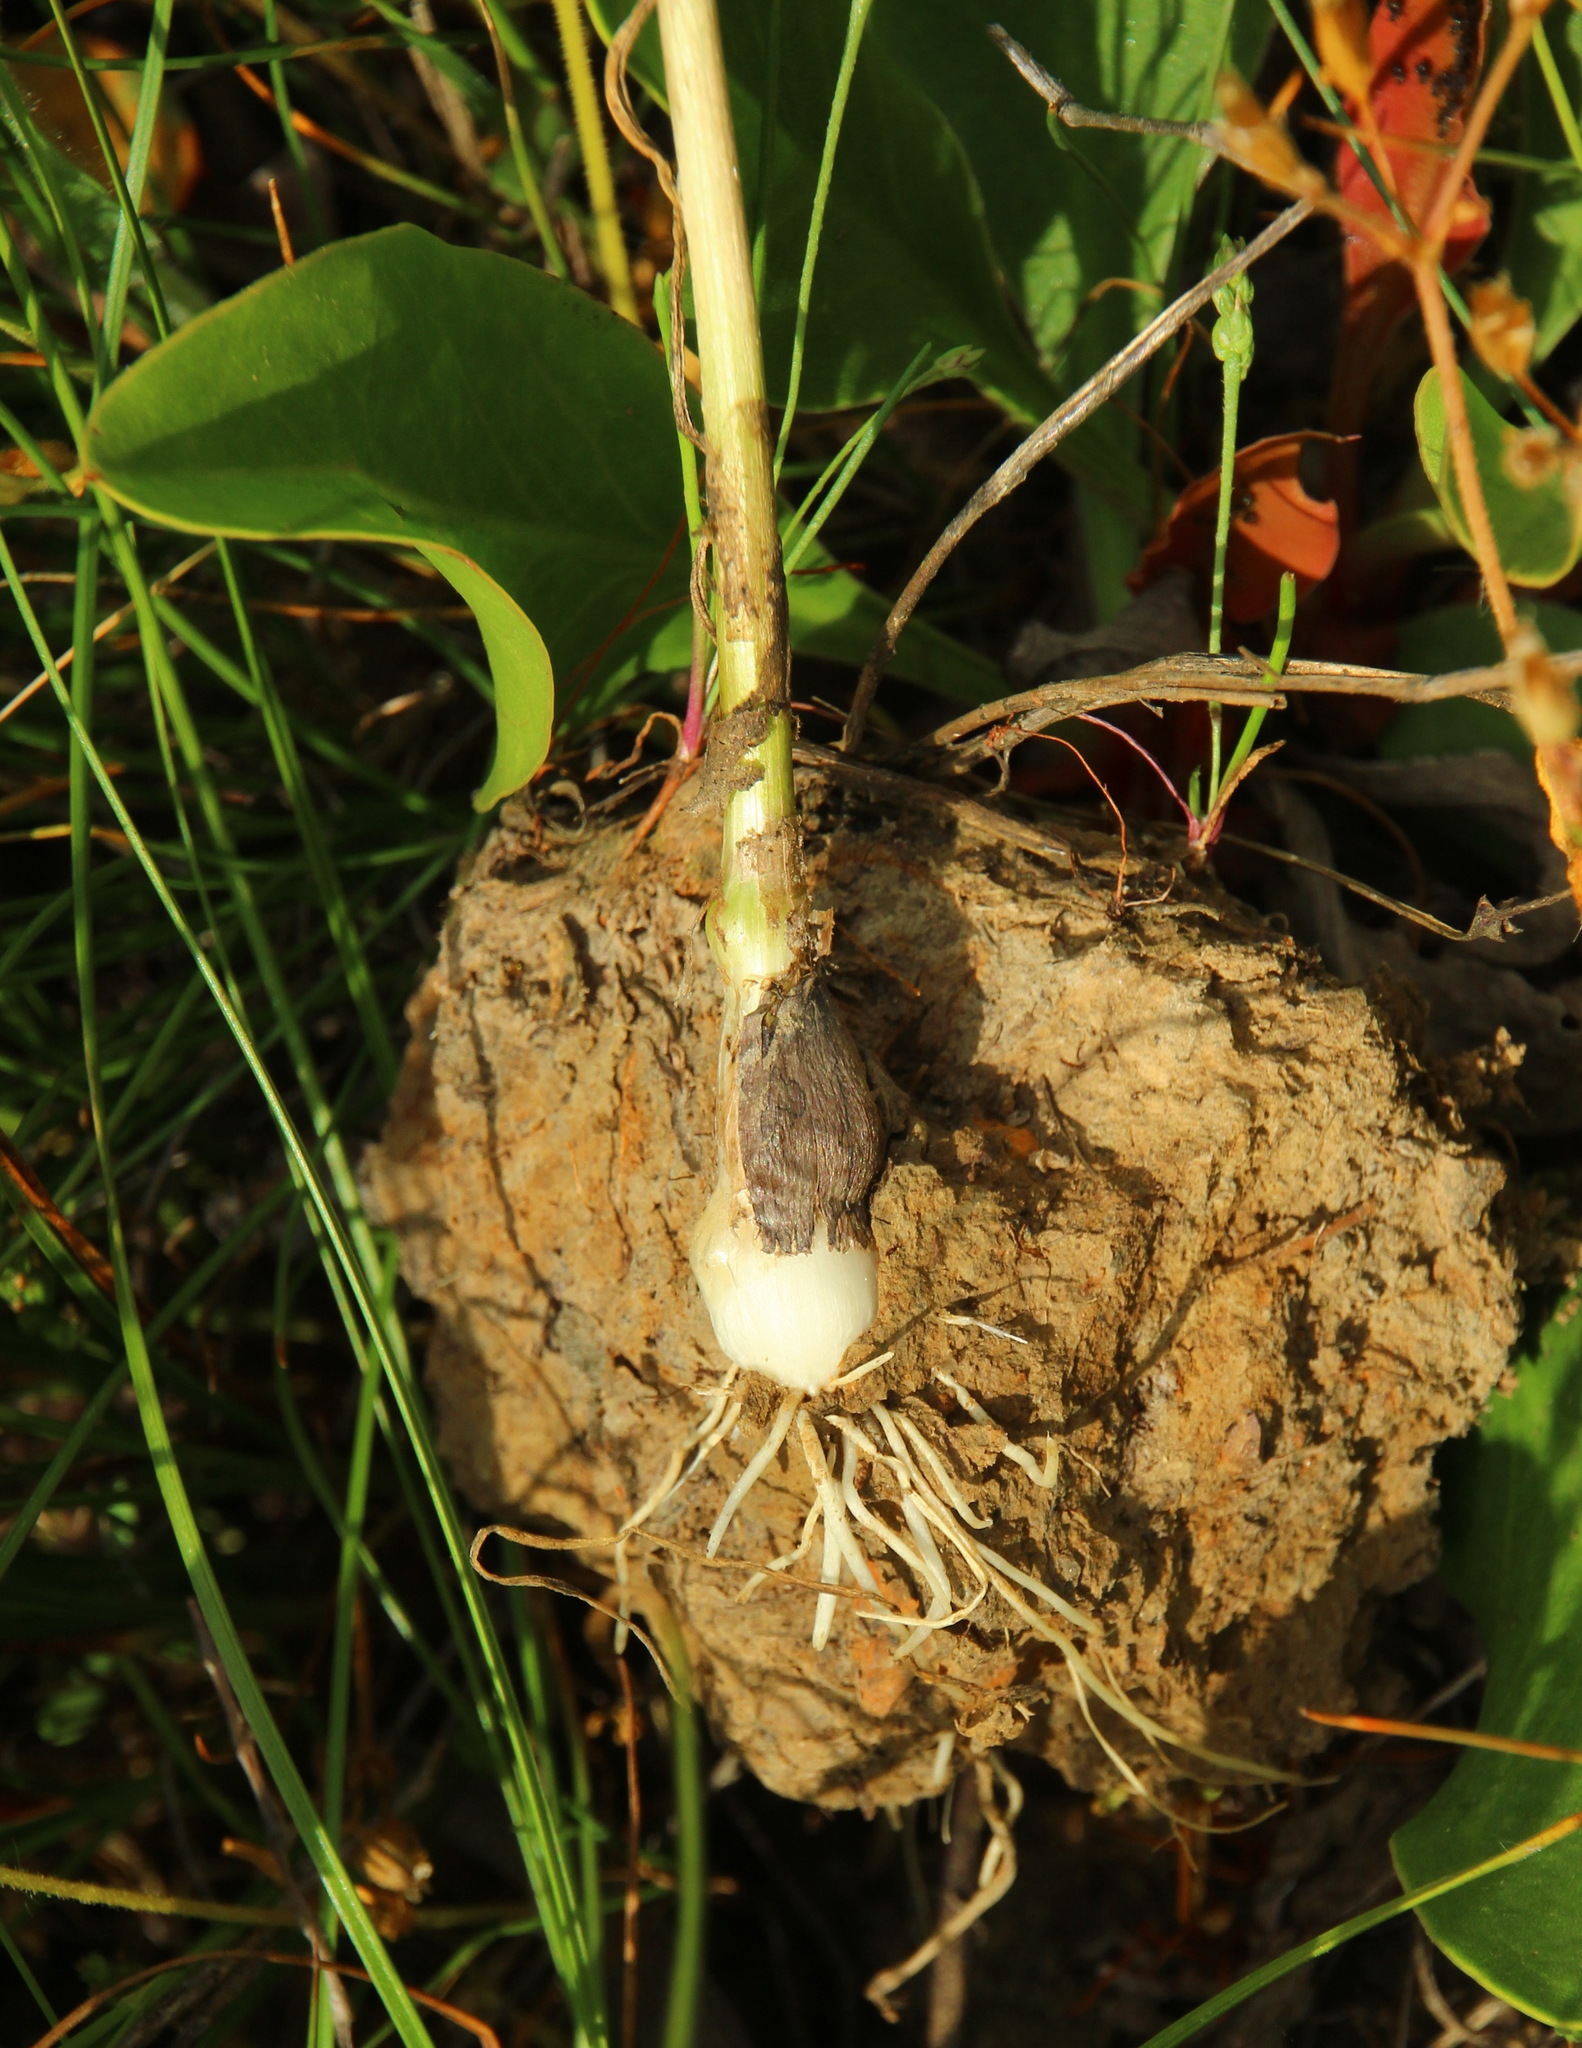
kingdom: Plantae
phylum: Tracheophyta
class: Liliopsida
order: Asparagales
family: Amaryllidaceae
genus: Allium
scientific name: Allium regelianum
